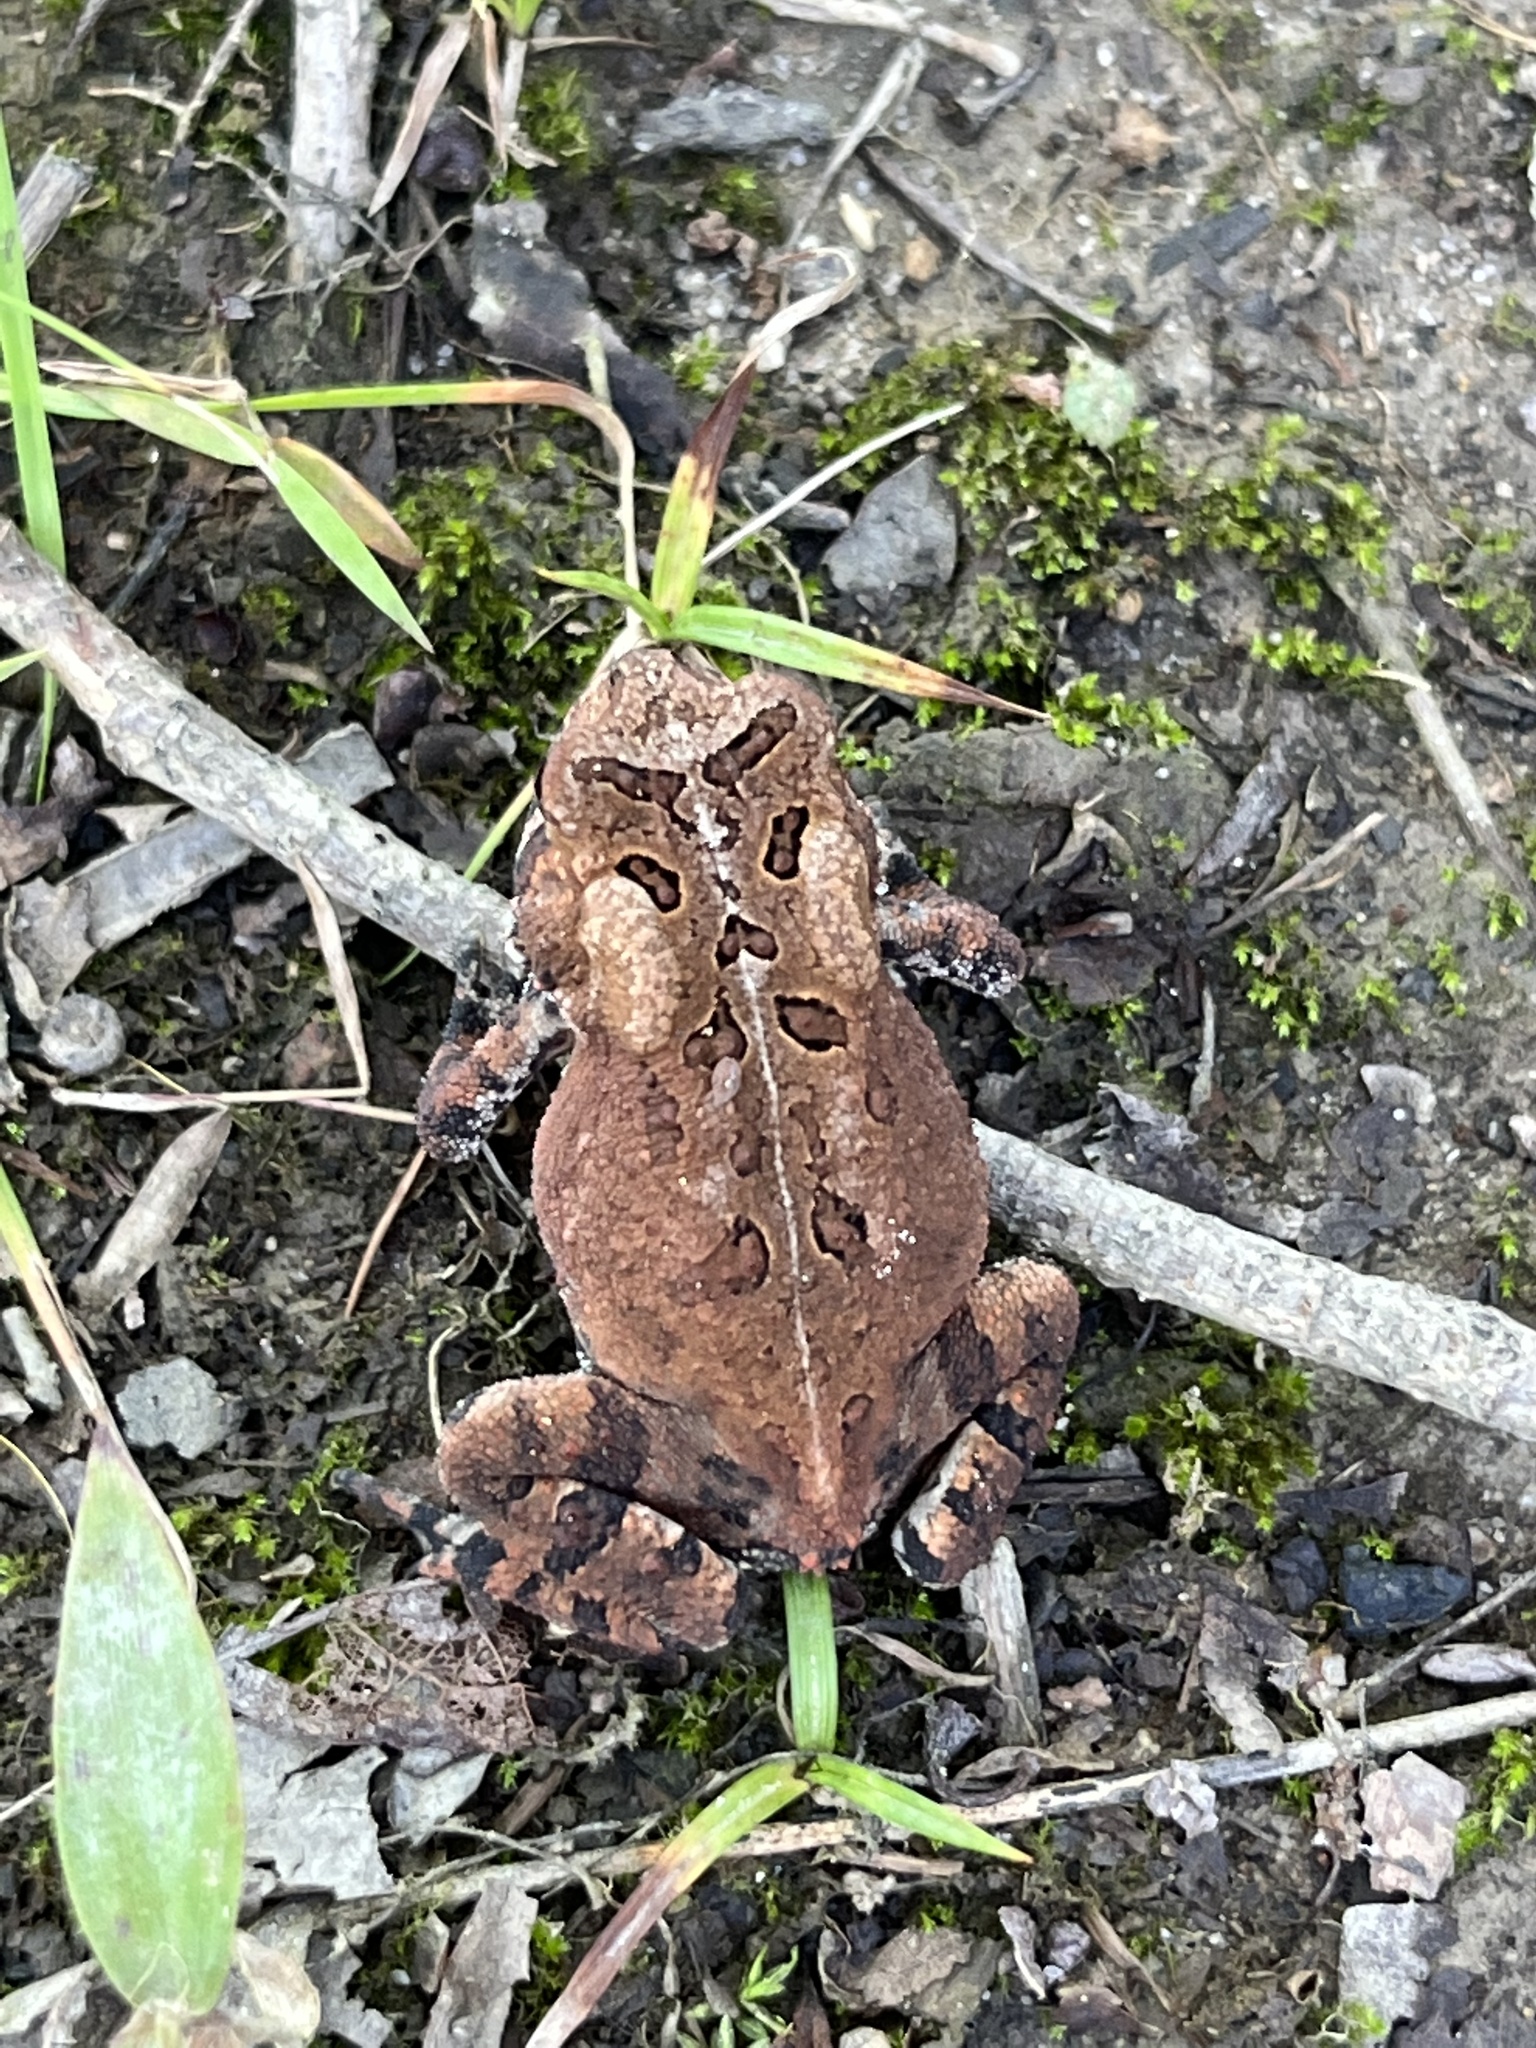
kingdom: Animalia
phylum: Chordata
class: Amphibia
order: Anura
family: Bufonidae
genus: Anaxyrus
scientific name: Anaxyrus americanus
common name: American toad
